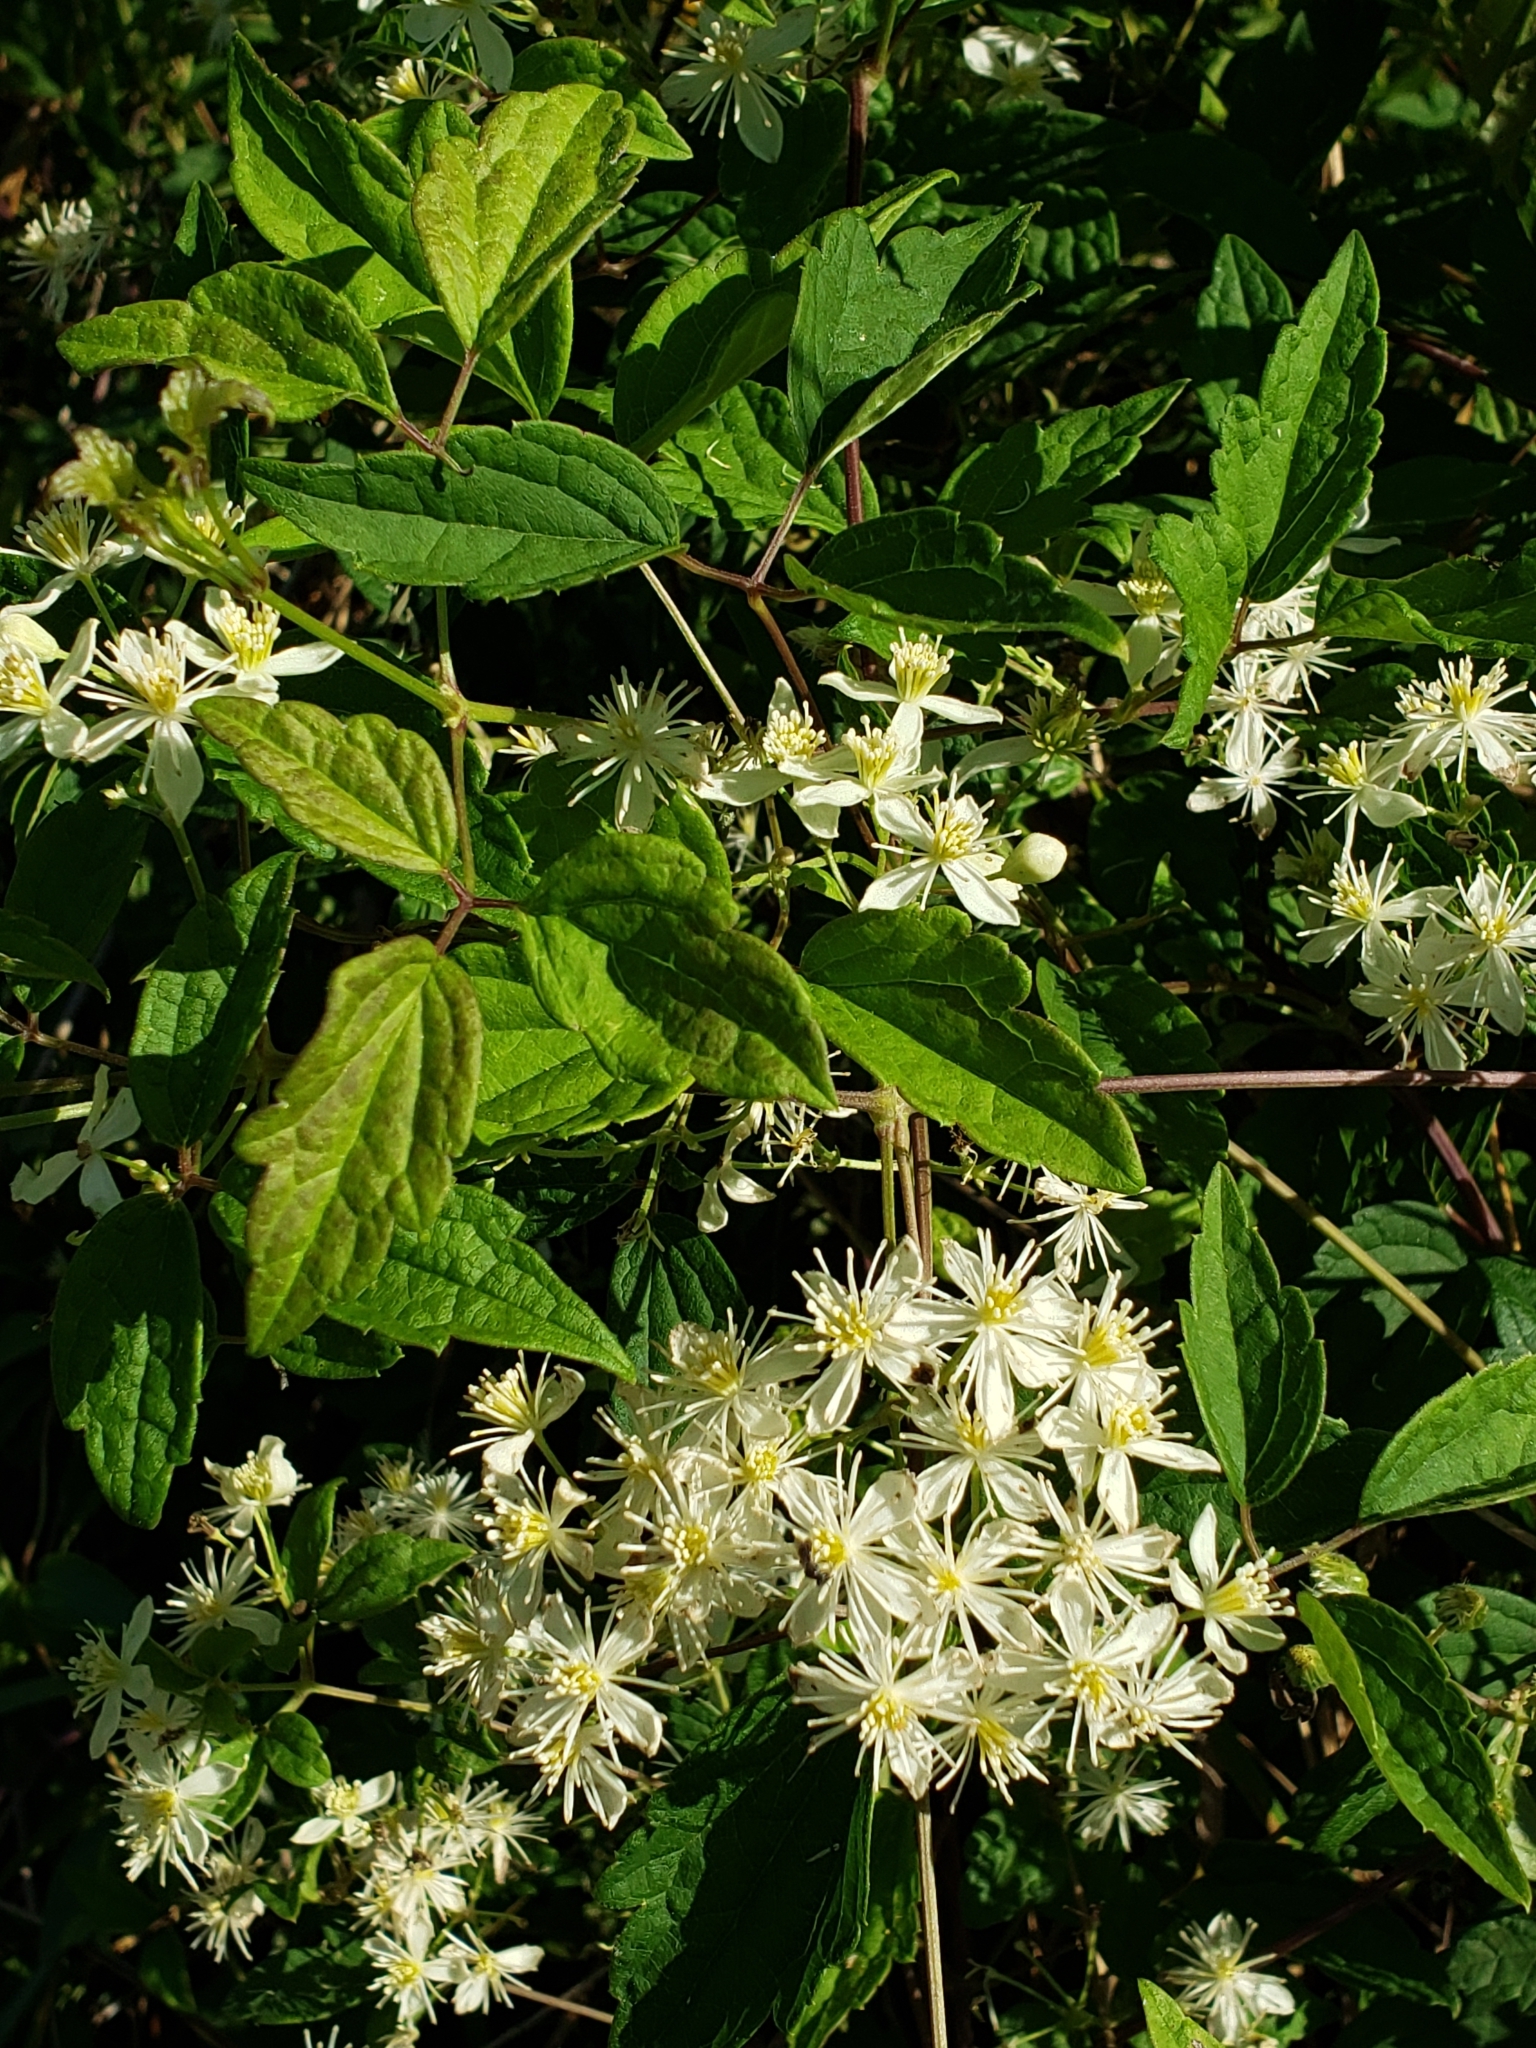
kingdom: Plantae
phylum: Tracheophyta
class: Magnoliopsida
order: Ranunculales
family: Ranunculaceae
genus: Clematis
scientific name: Clematis virginiana
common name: Virgin's-bower
